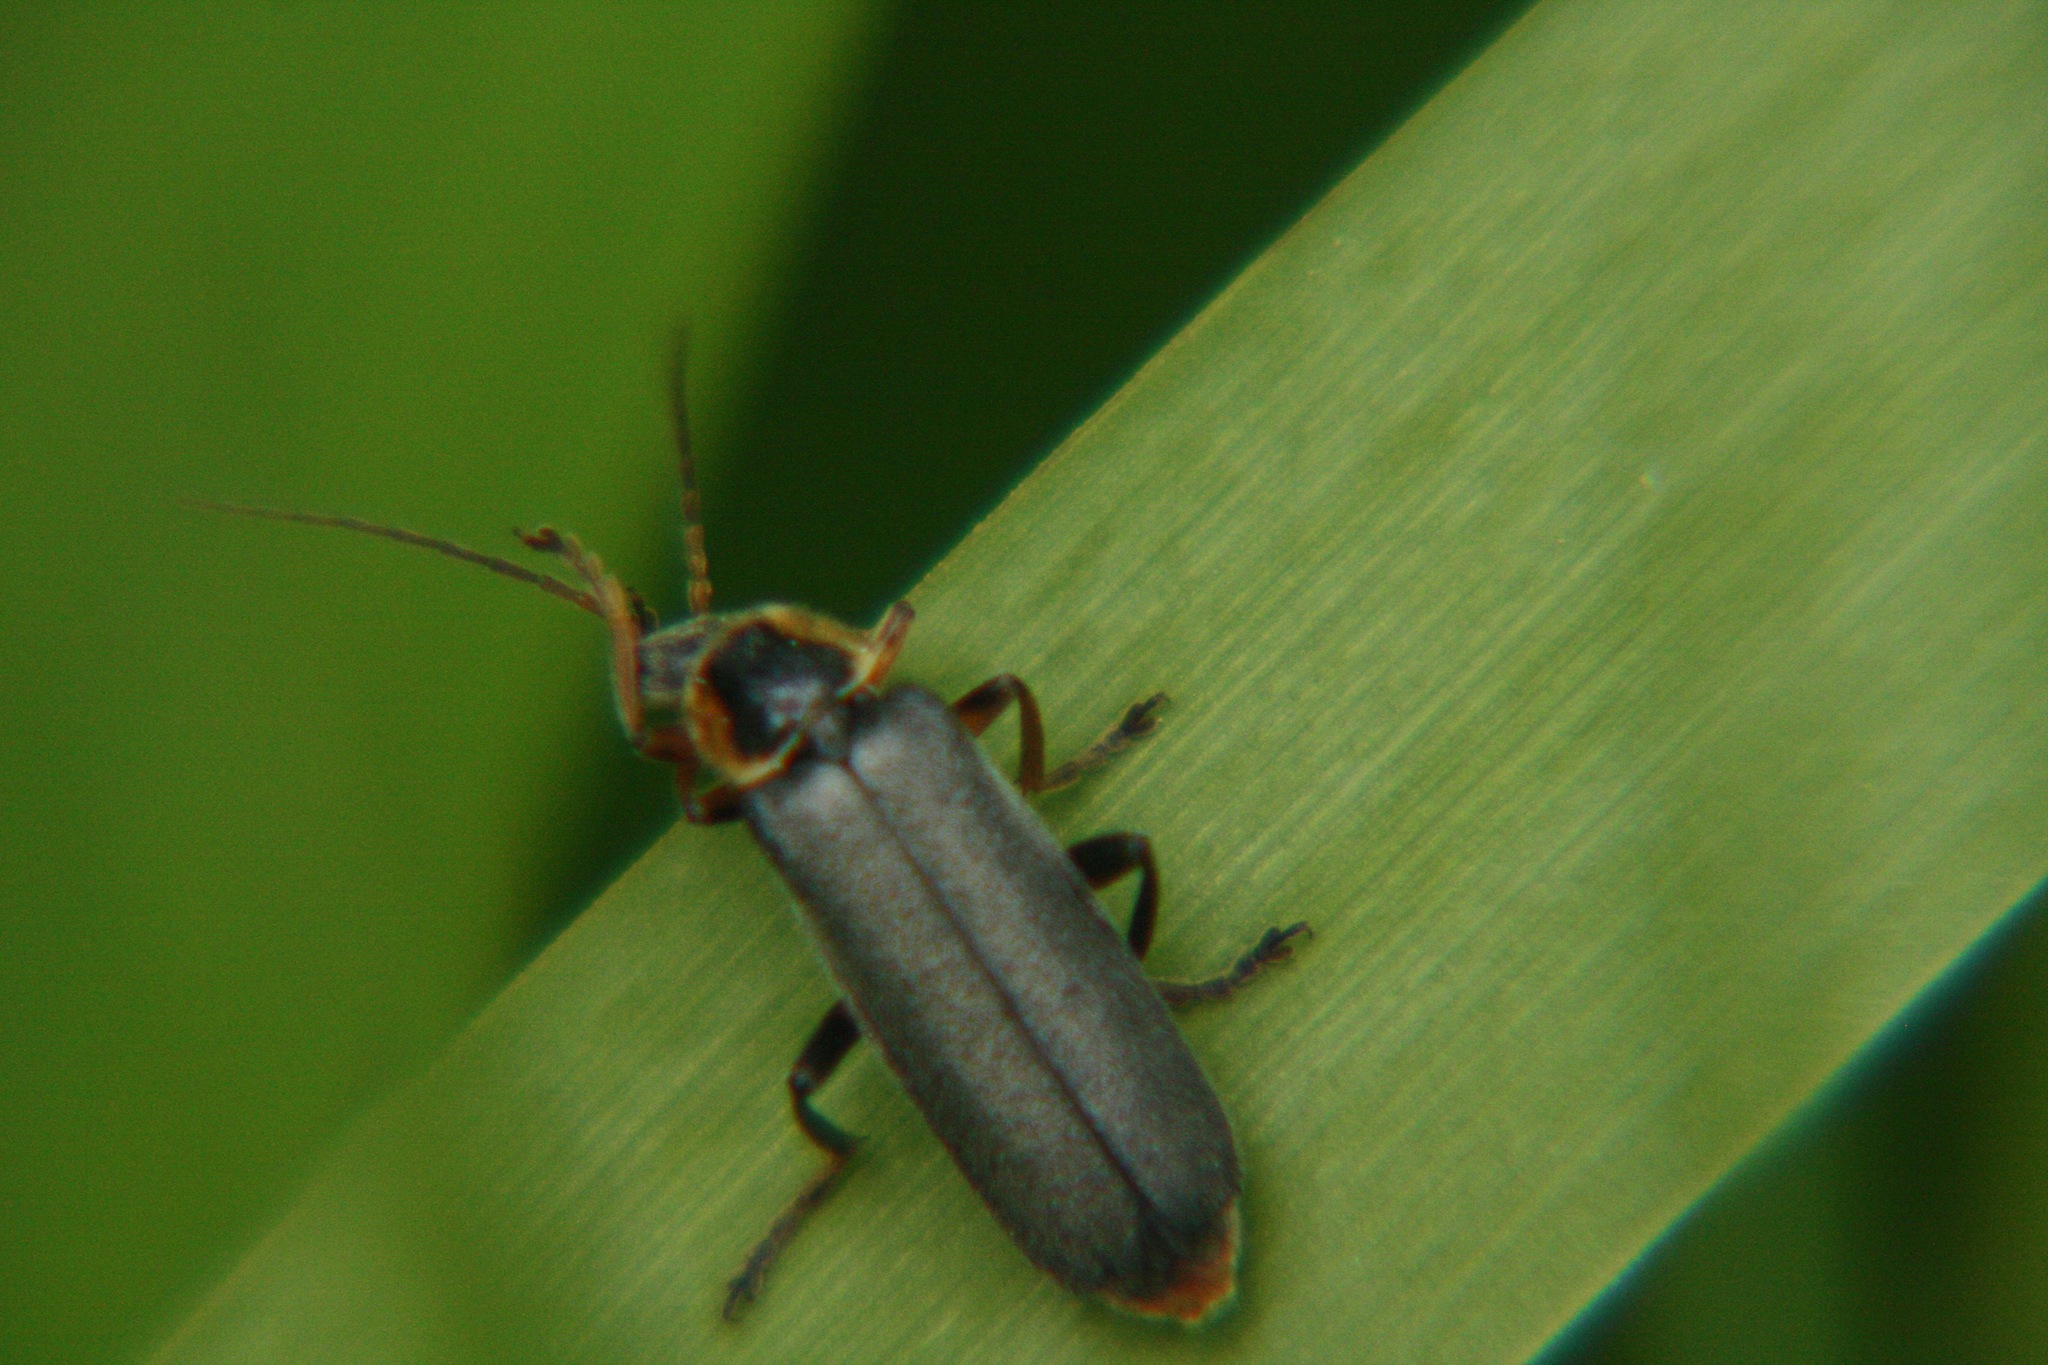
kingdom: Animalia
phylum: Arthropoda
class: Insecta
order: Coleoptera
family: Cantharidae
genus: Cantharis
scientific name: Cantharis nigricans
